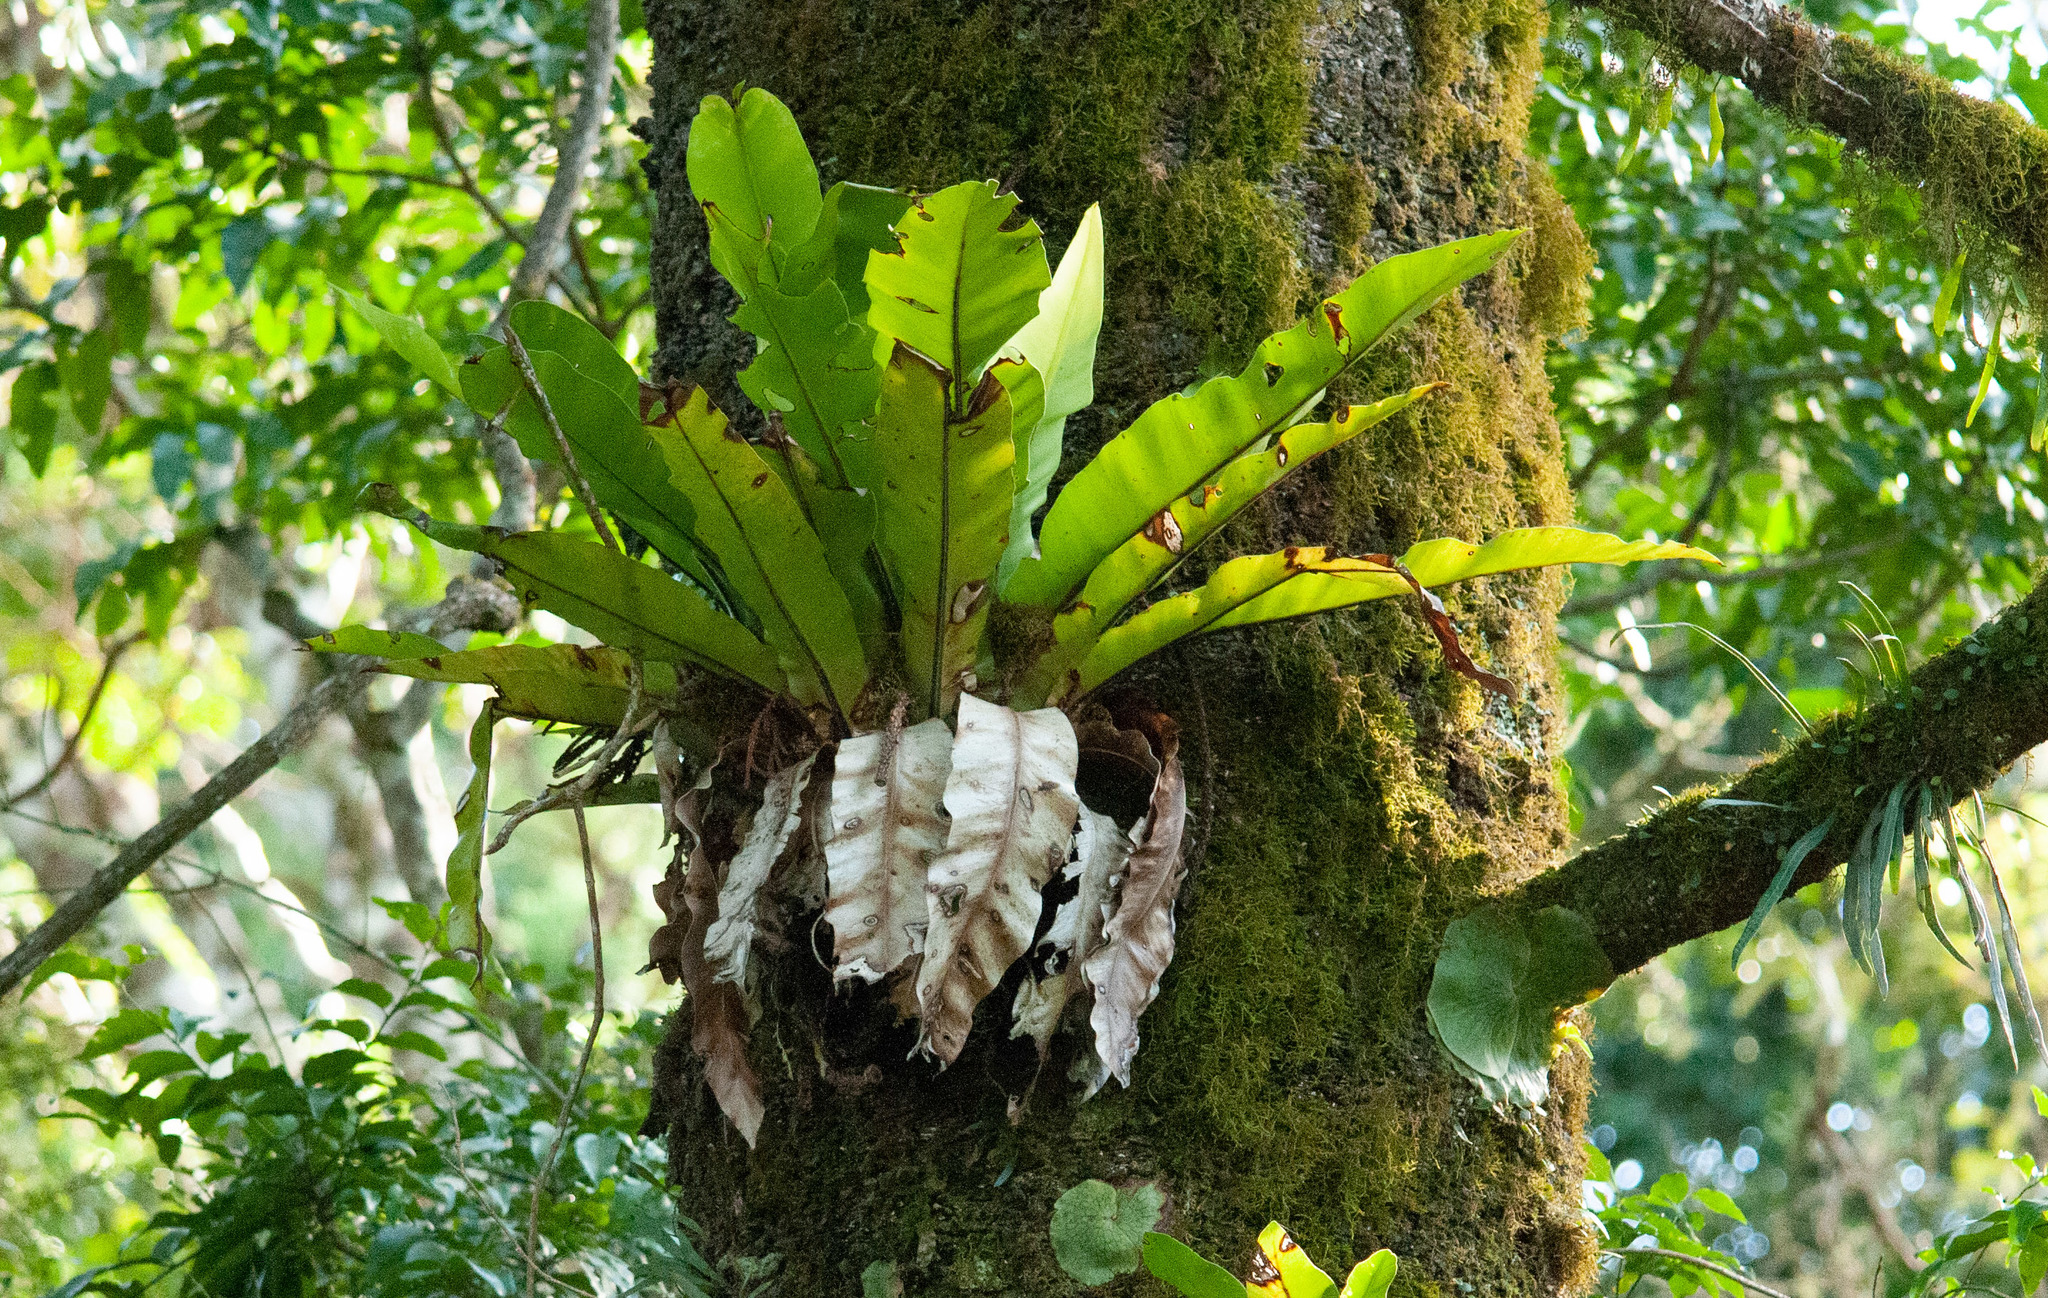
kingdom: Plantae
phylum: Tracheophyta
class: Polypodiopsida
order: Polypodiales
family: Aspleniaceae
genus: Asplenium
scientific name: Asplenium australasicum
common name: Bird's-nest fern
